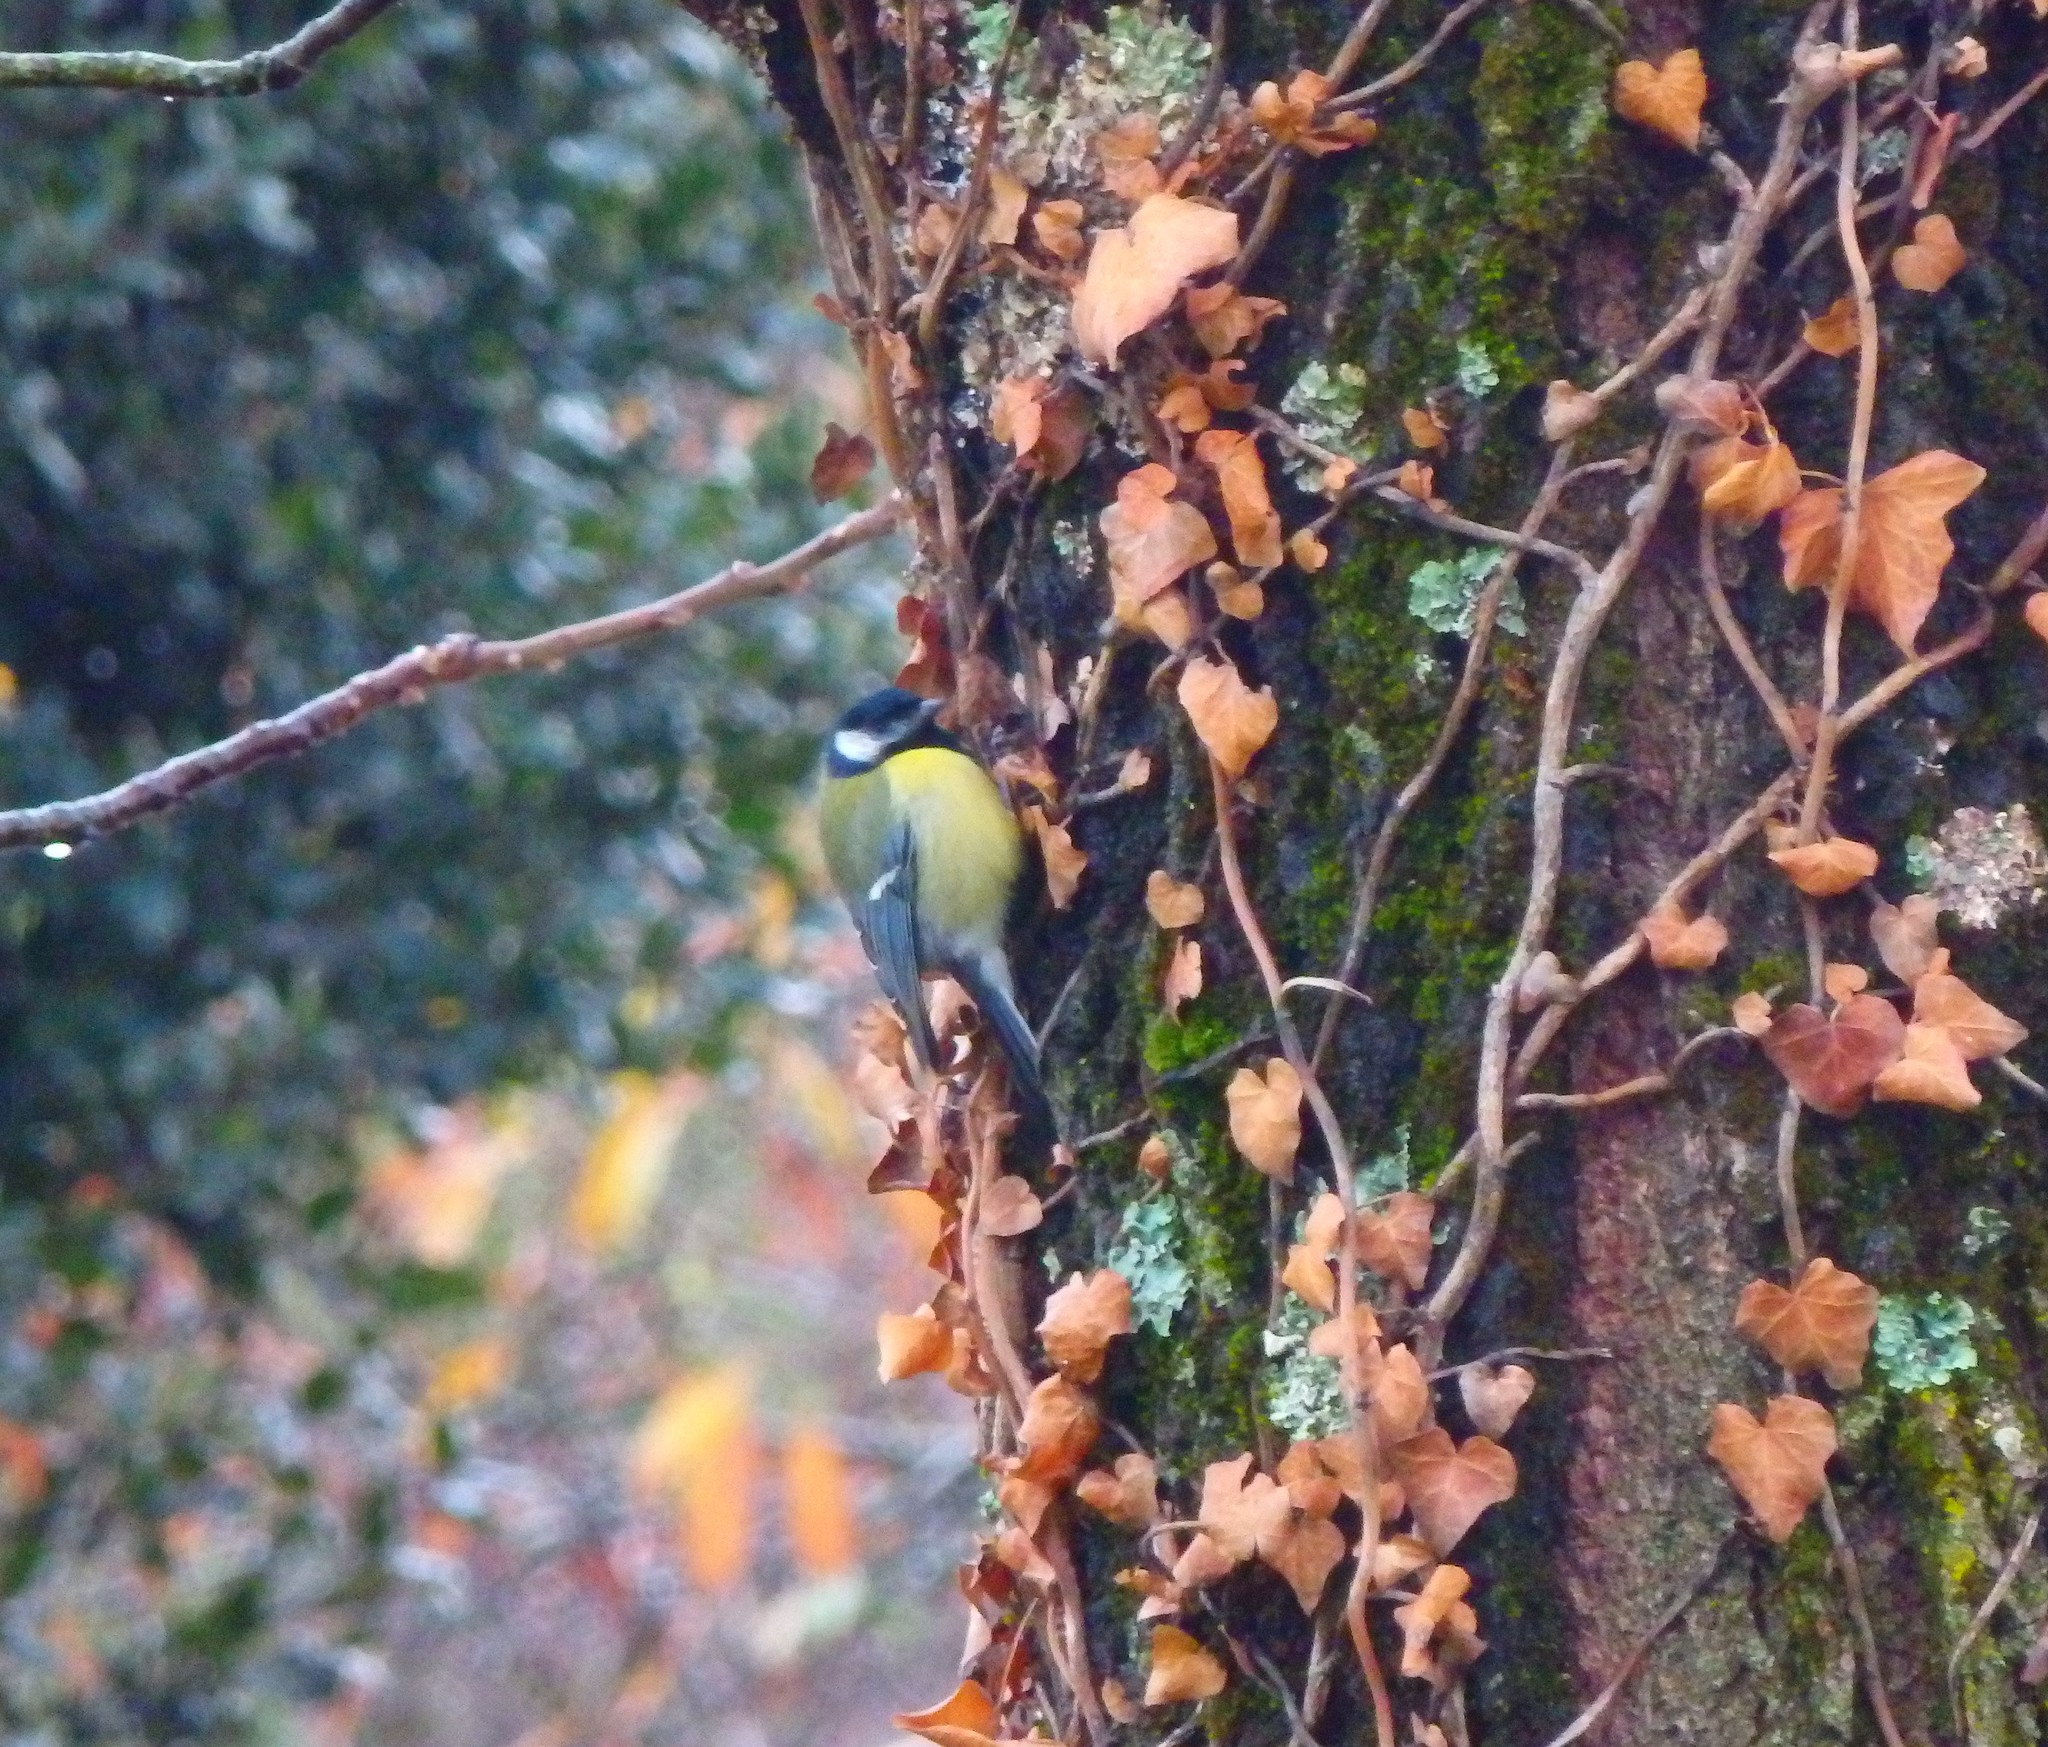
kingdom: Animalia
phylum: Chordata
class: Aves
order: Passeriformes
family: Paridae
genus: Parus
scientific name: Parus major
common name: Great tit
